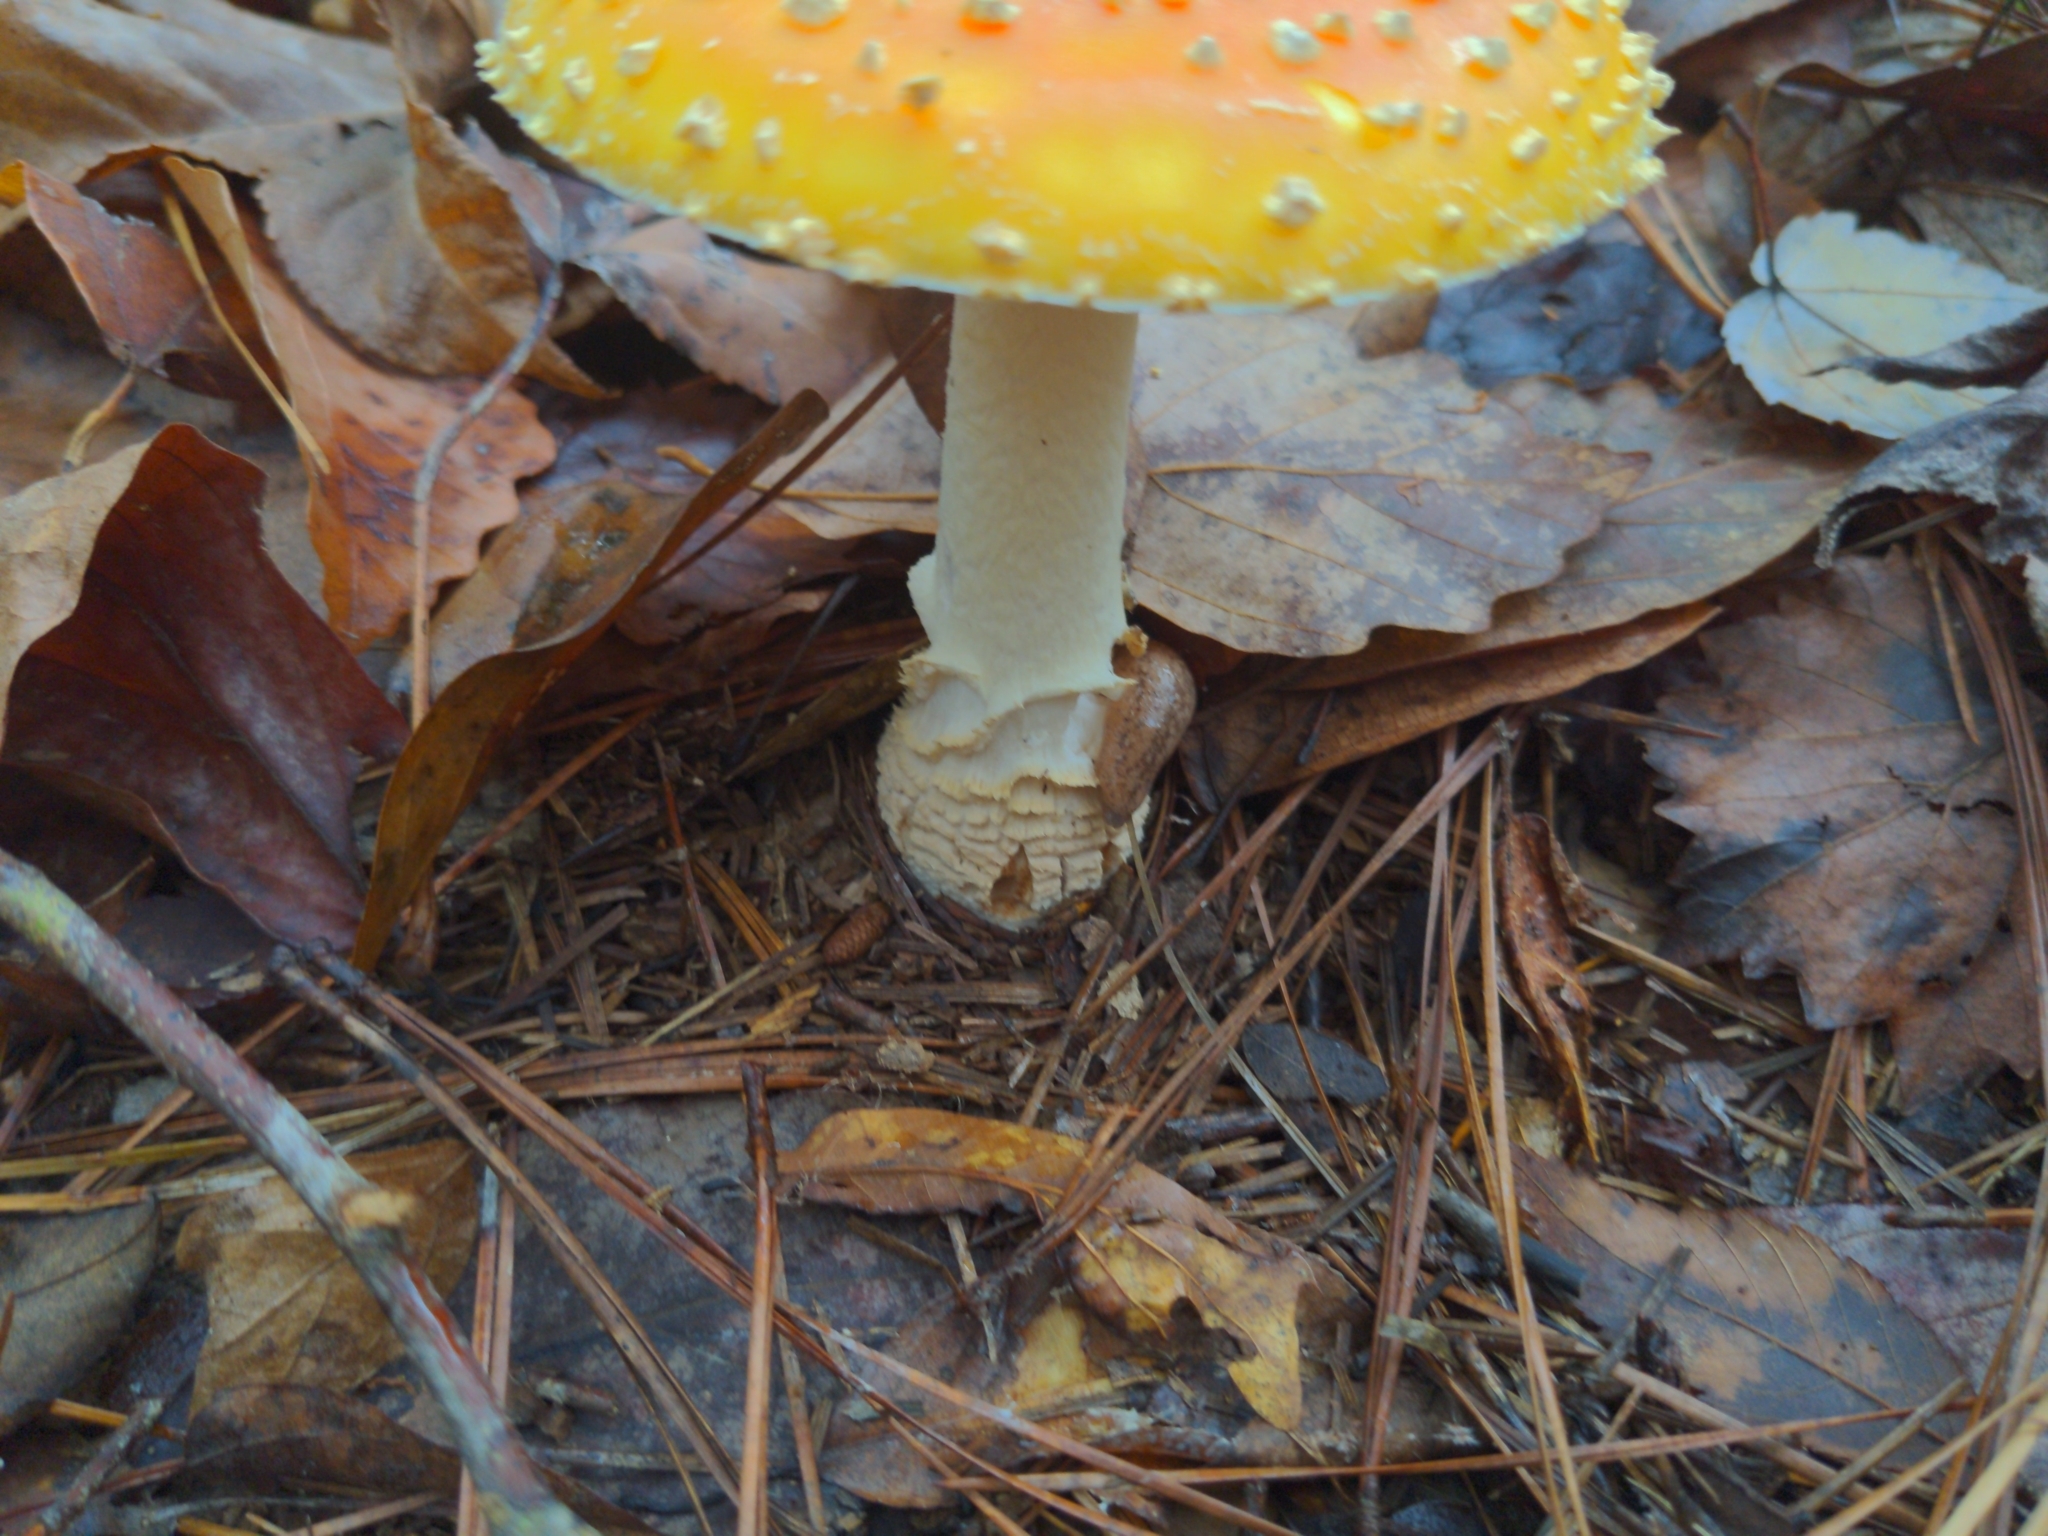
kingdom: Fungi
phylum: Basidiomycota
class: Agaricomycetes
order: Agaricales
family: Amanitaceae
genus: Amanita
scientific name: Amanita persicina
